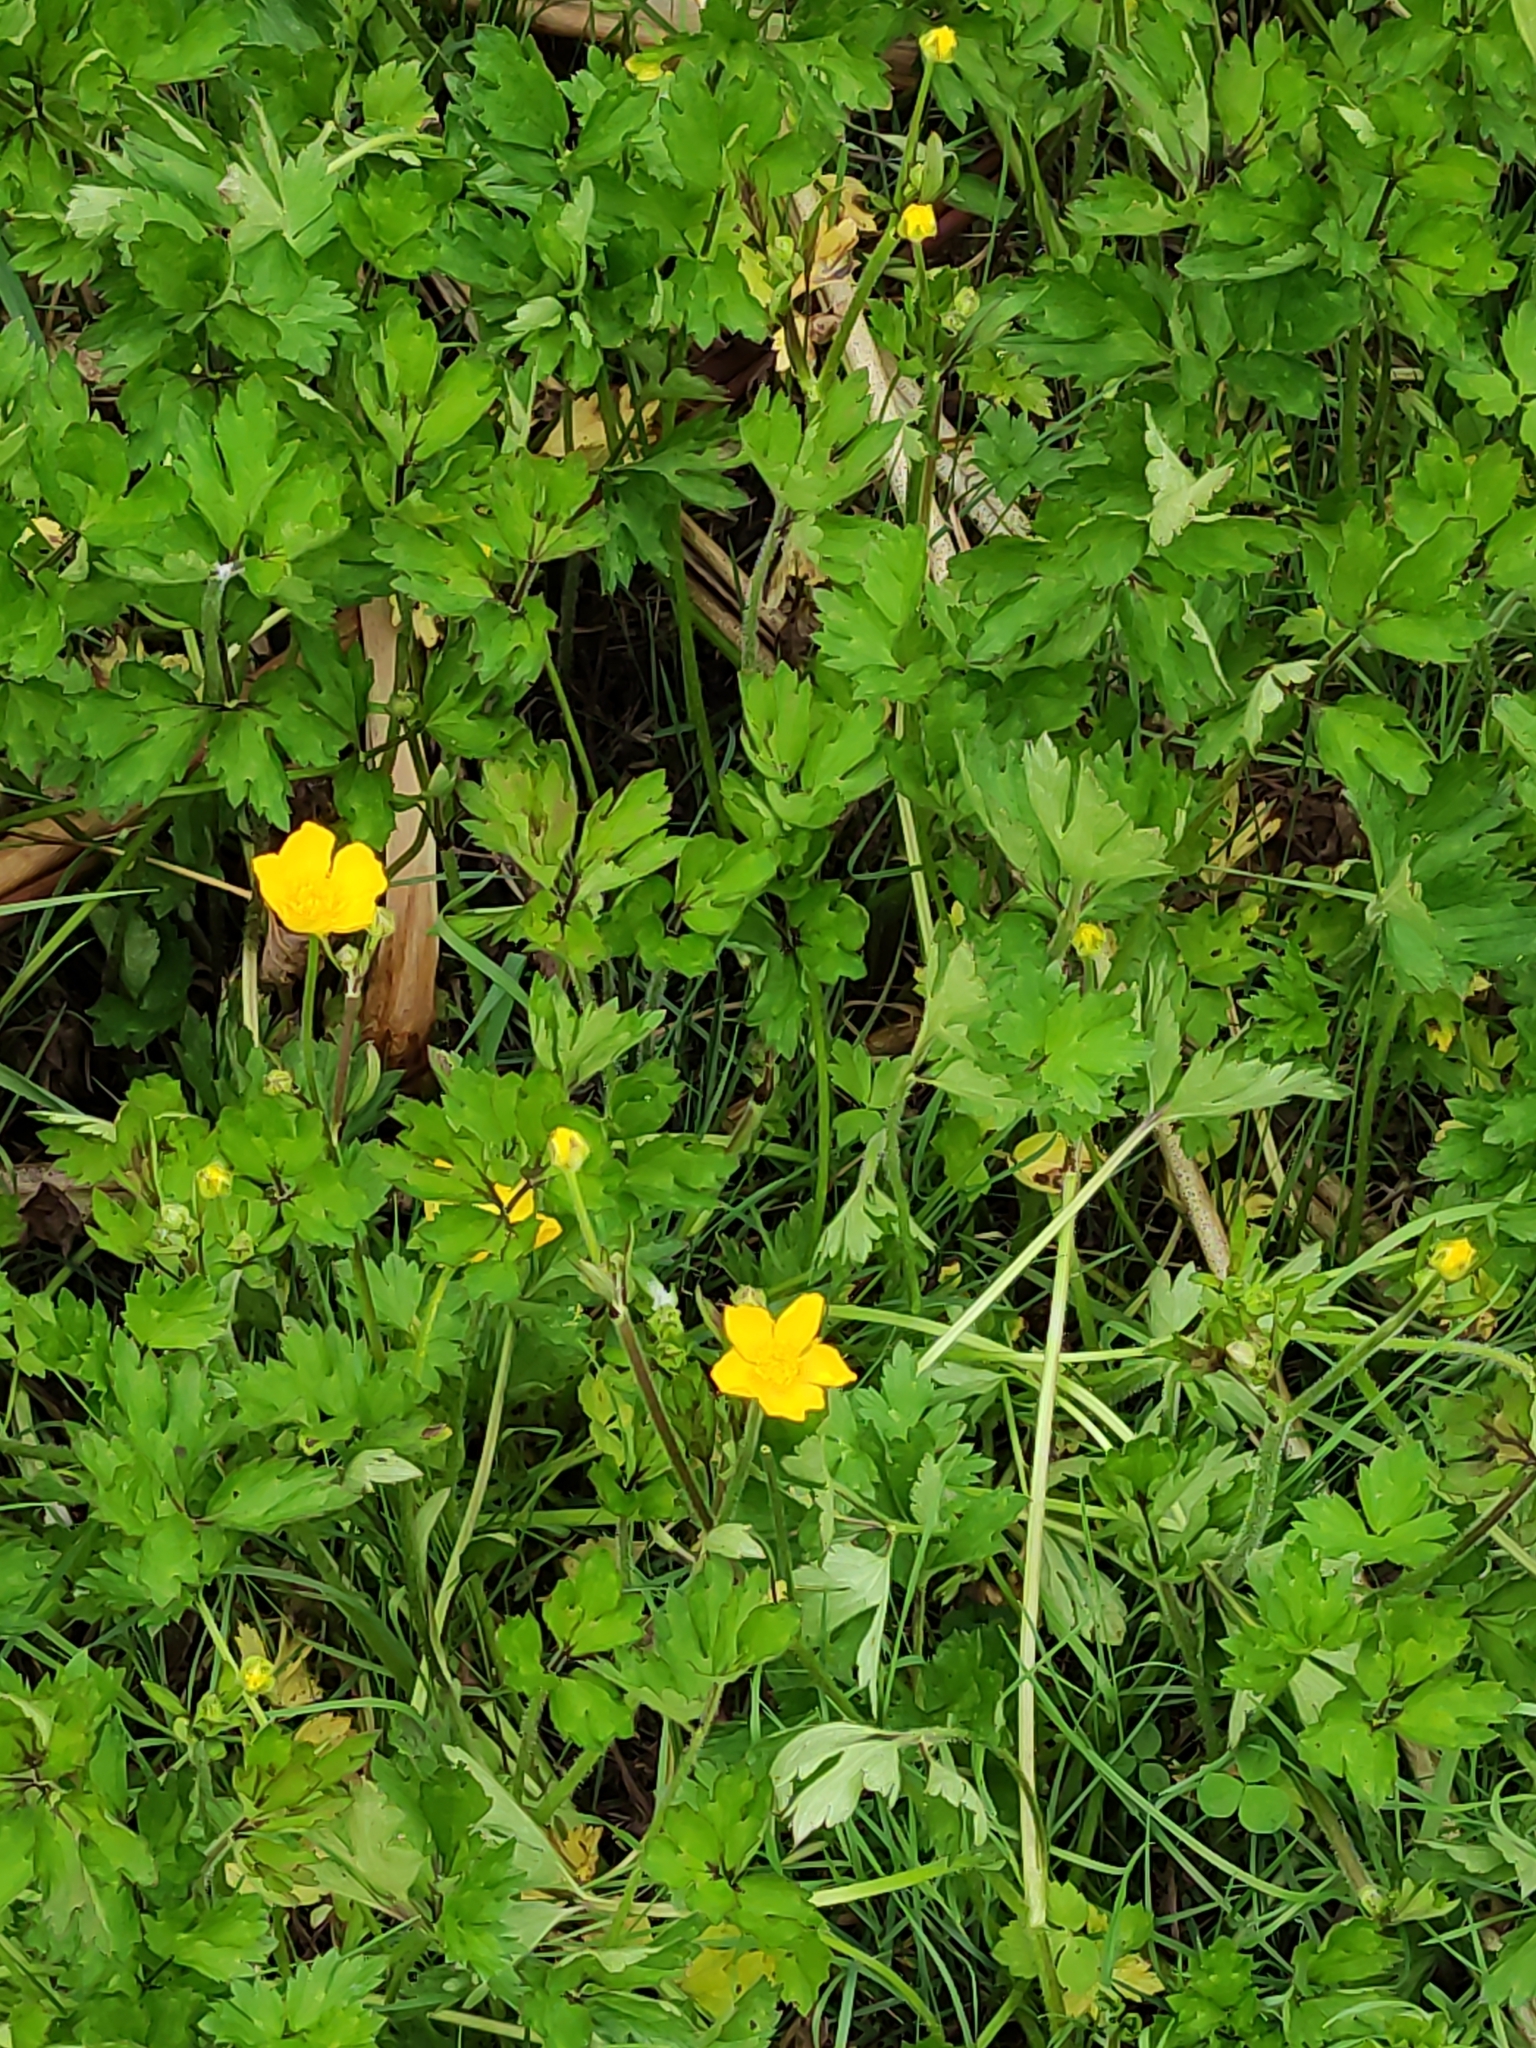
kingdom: Plantae
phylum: Tracheophyta
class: Magnoliopsida
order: Ranunculales
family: Ranunculaceae
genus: Ranunculus
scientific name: Ranunculus repens
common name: Creeping buttercup
